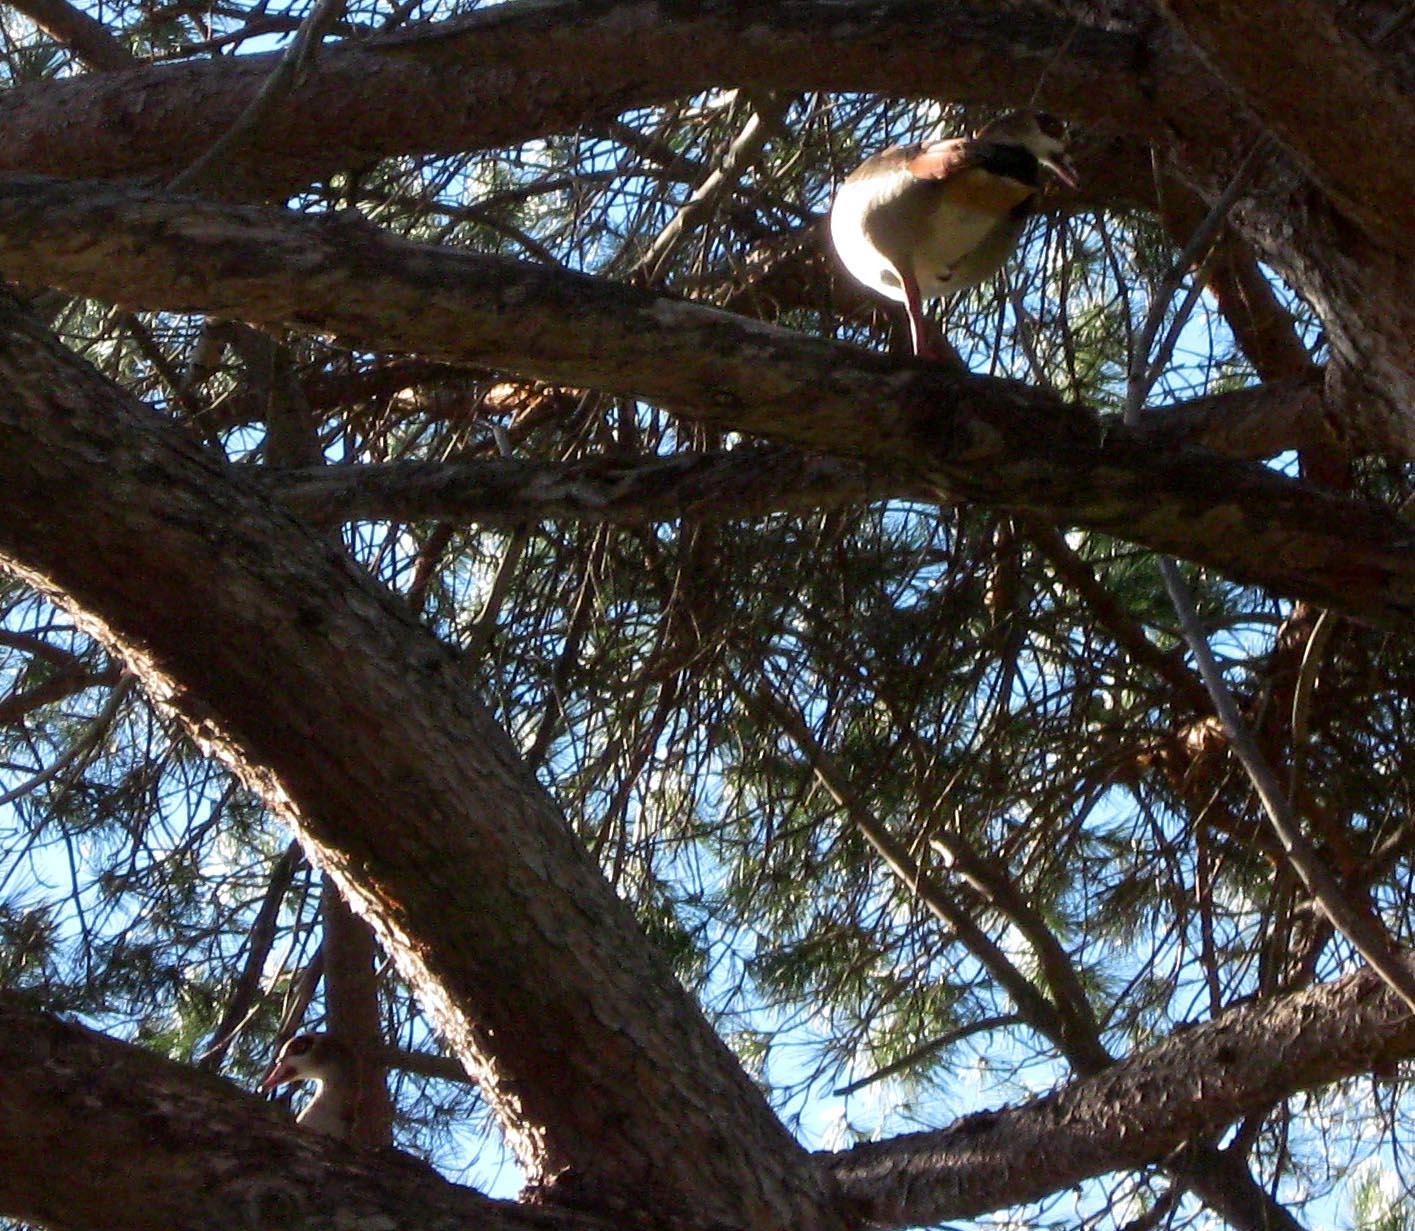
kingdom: Plantae
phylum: Tracheophyta
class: Pinopsida
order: Pinales
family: Pinaceae
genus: Pinus
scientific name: Pinus pinea
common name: Italian stone pine
